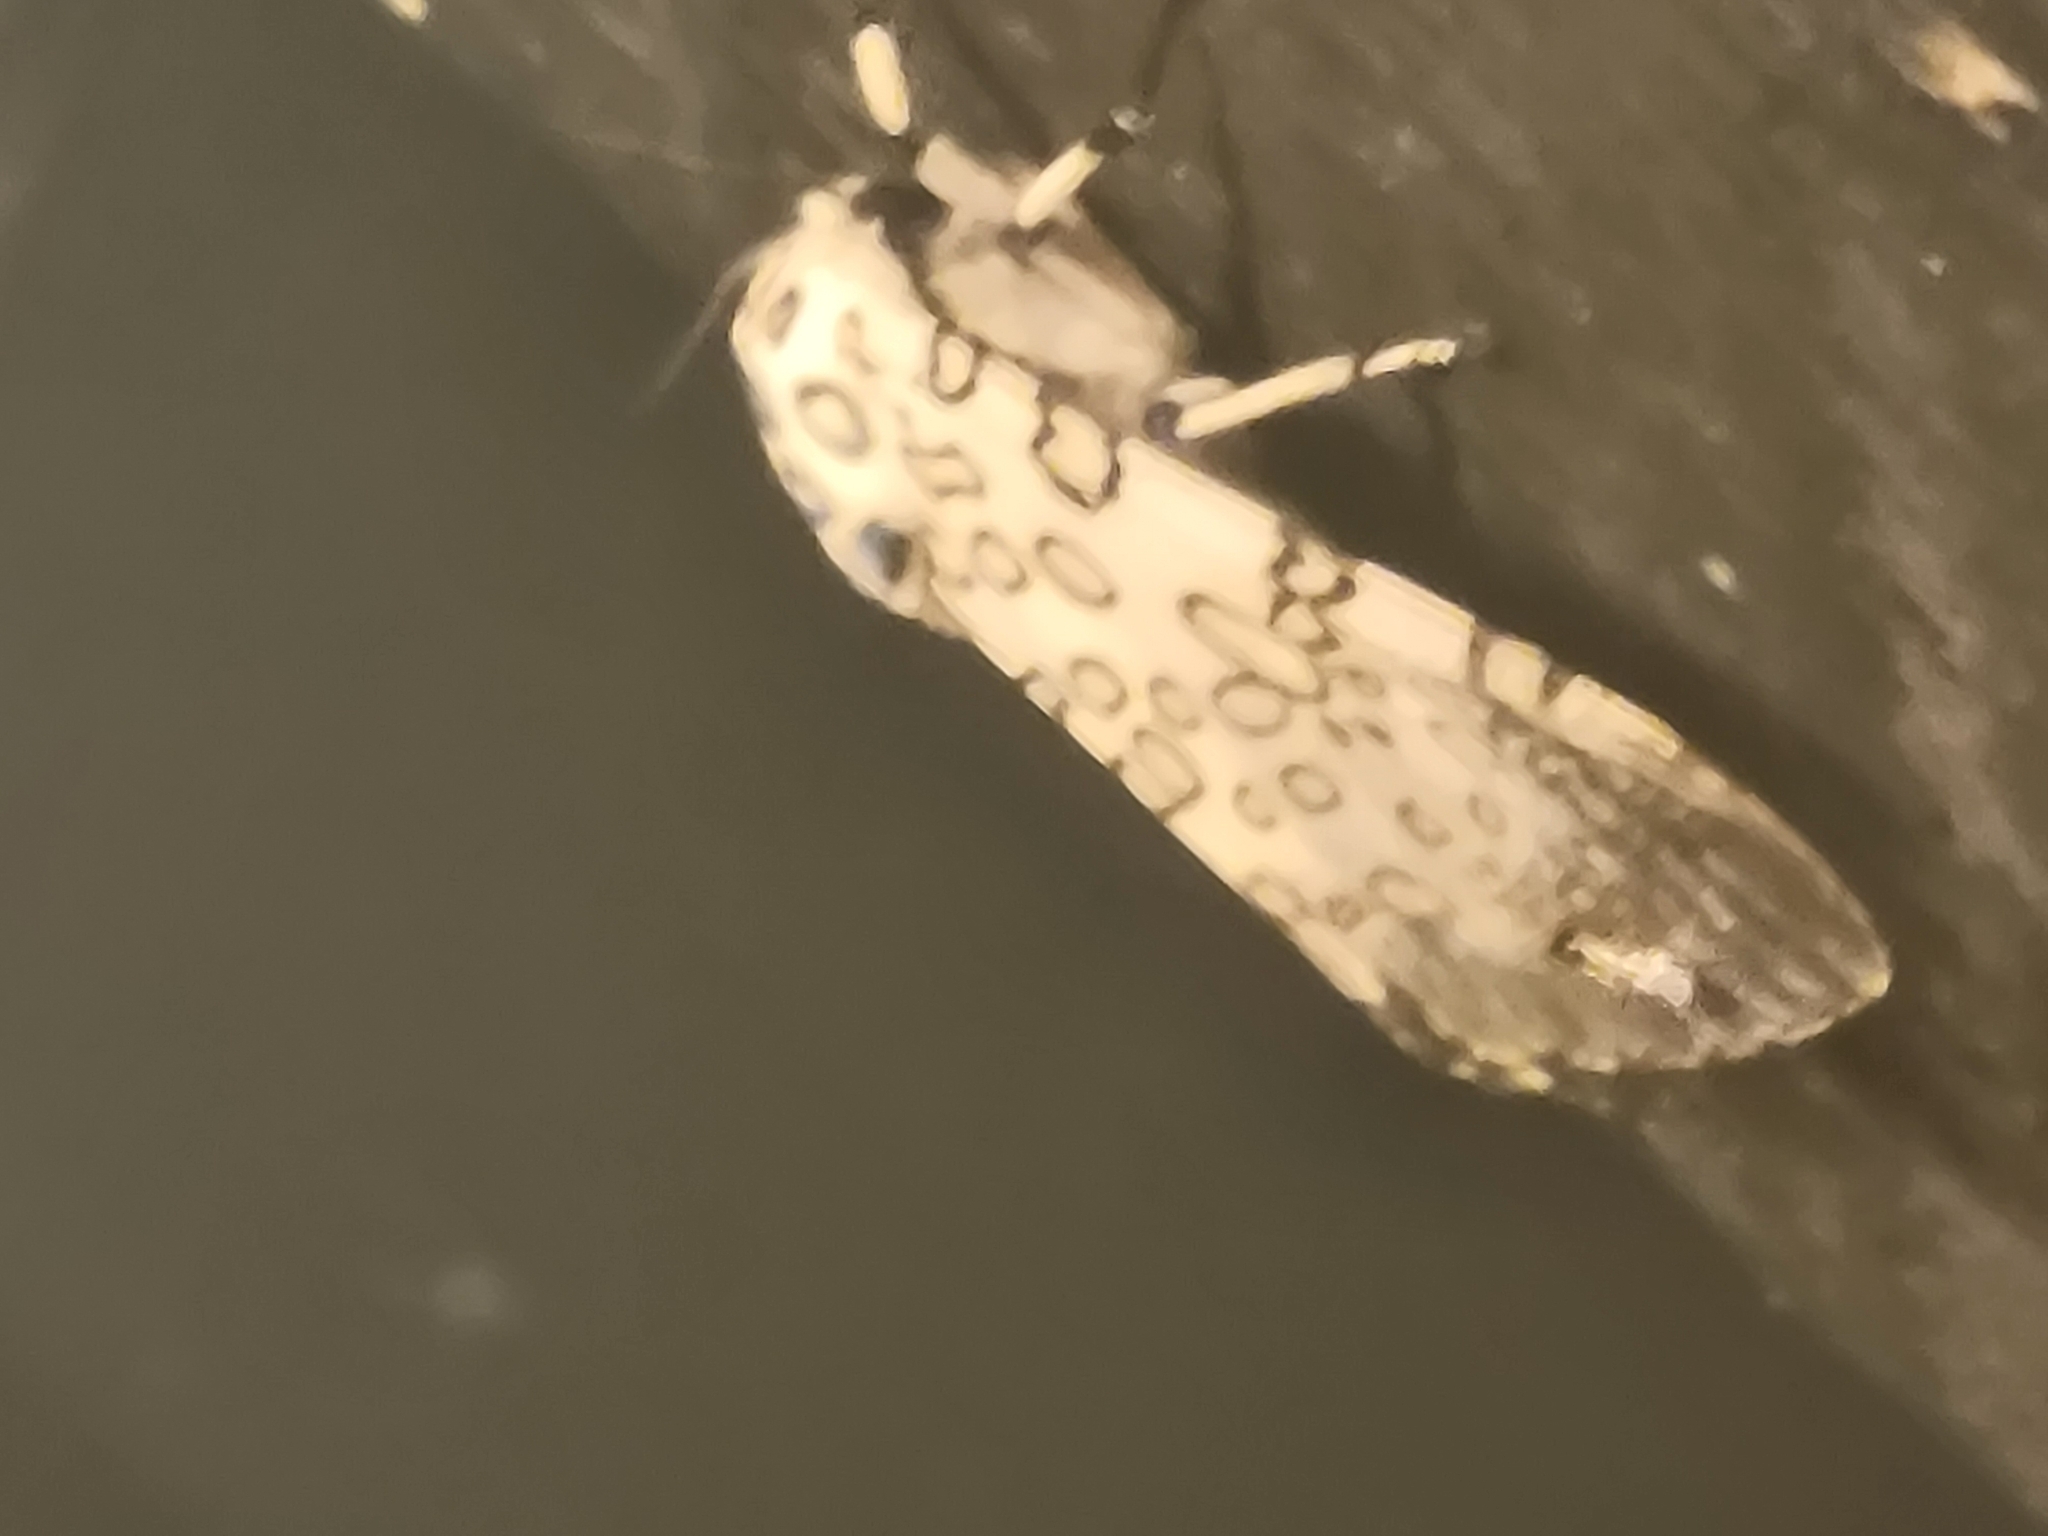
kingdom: Animalia
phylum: Arthropoda
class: Insecta
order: Lepidoptera
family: Erebidae
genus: Hypercompe
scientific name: Hypercompe scribonia
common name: Giant leopard moth
